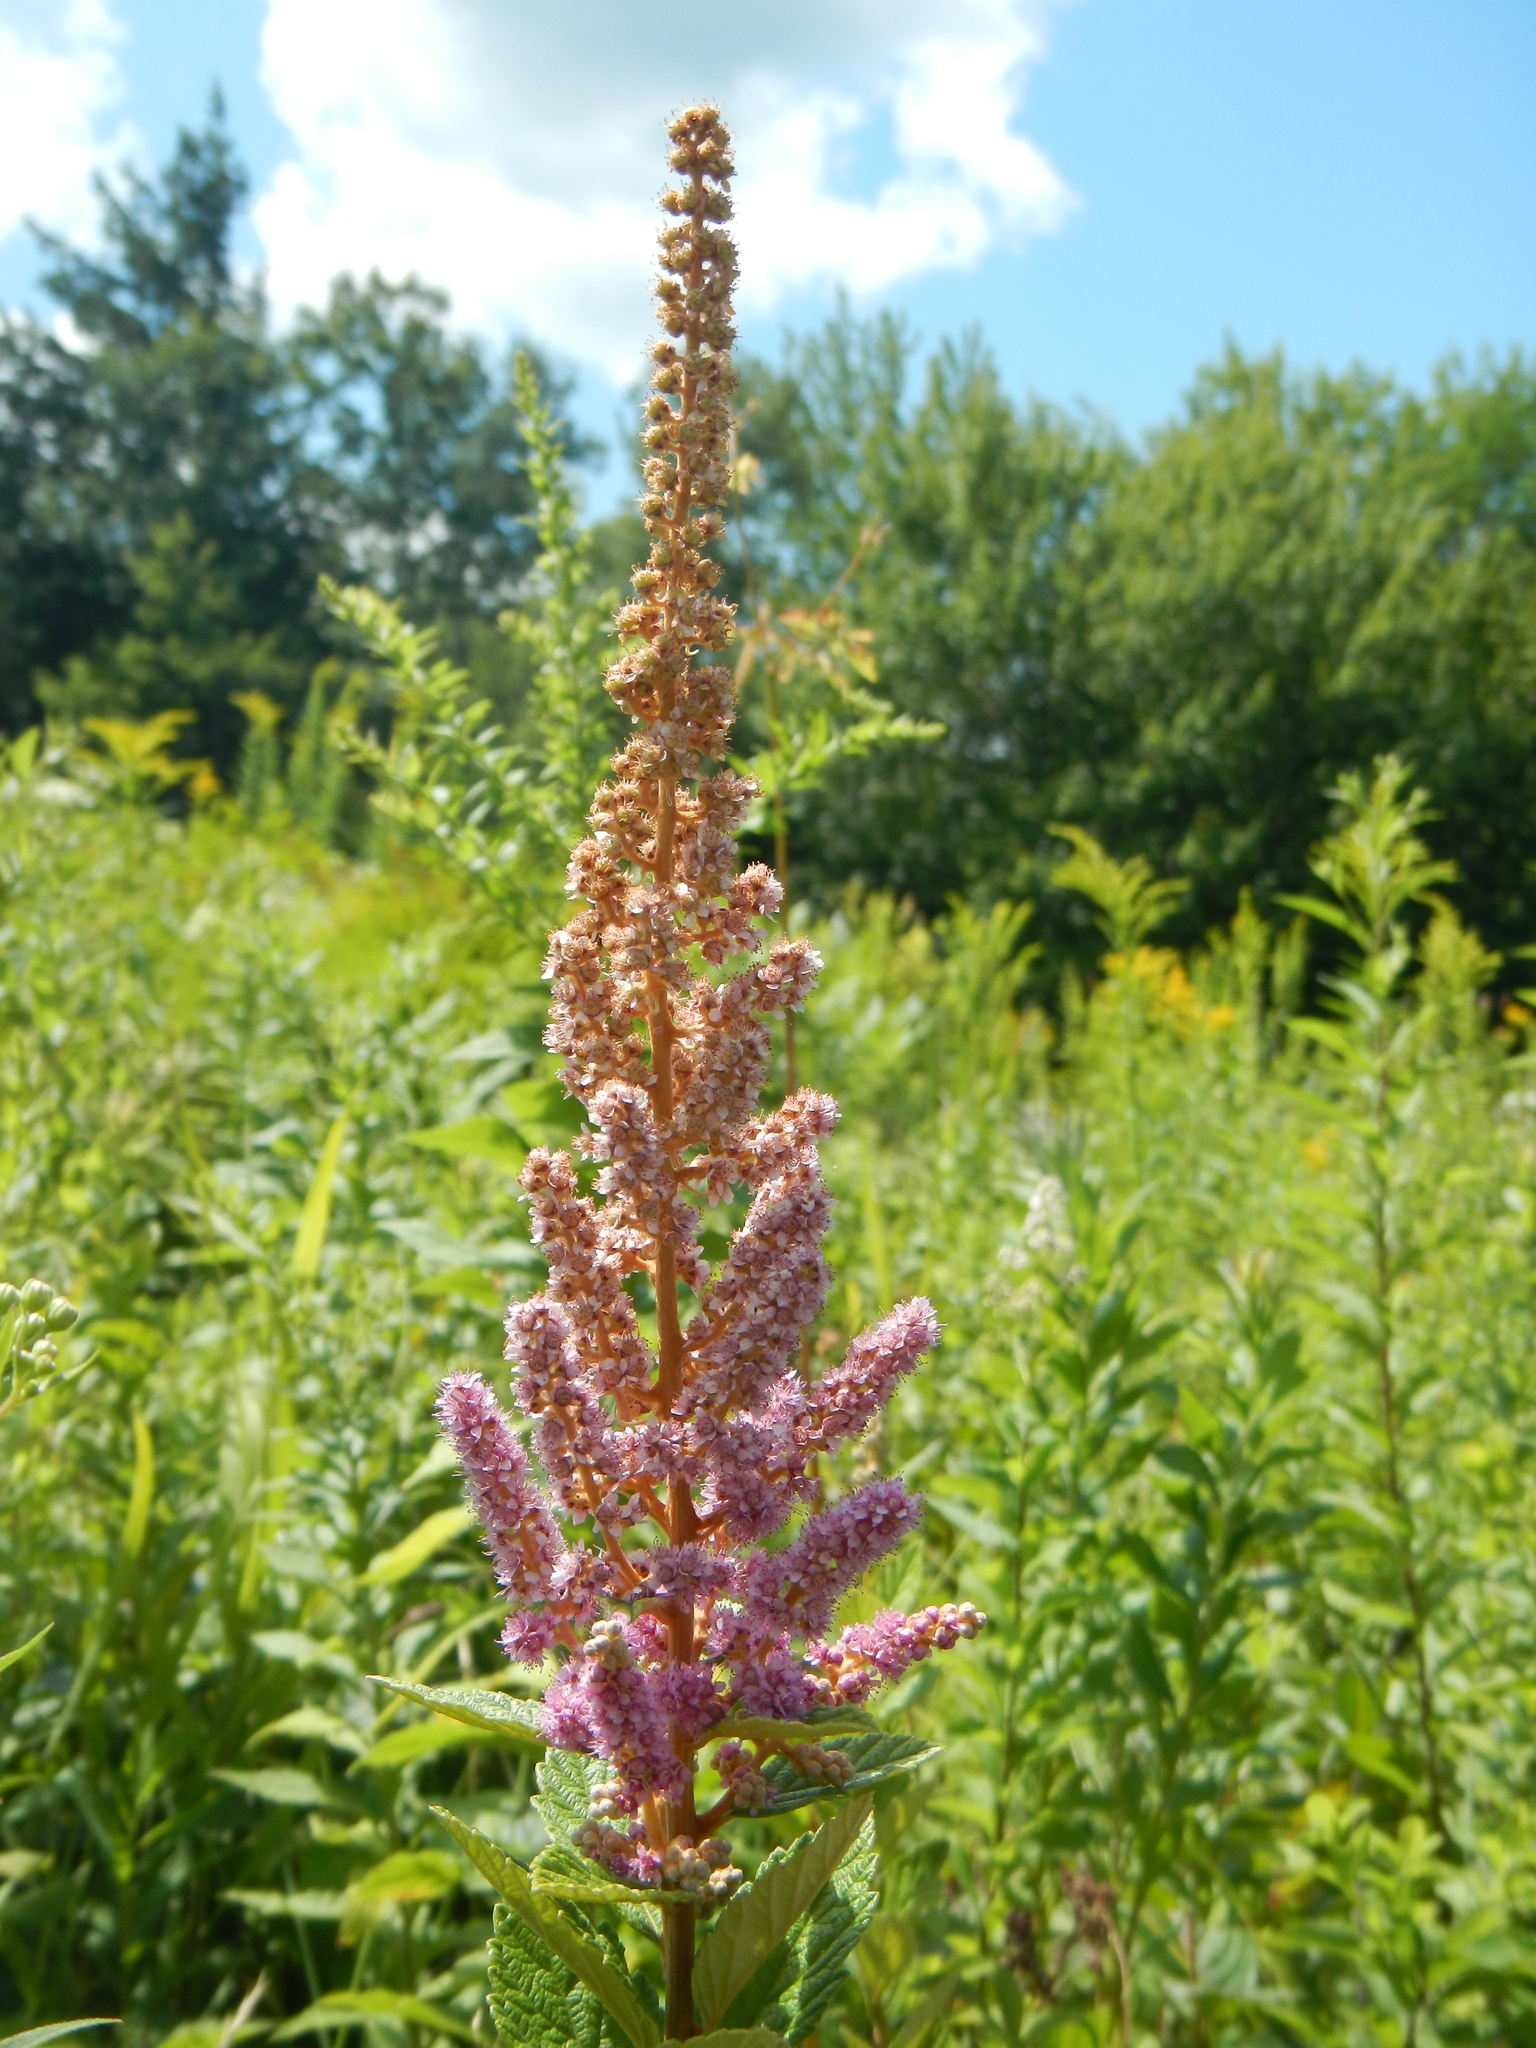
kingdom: Plantae
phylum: Tracheophyta
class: Magnoliopsida
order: Rosales
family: Rosaceae
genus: Spiraea
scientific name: Spiraea tomentosa
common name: Hardhack
